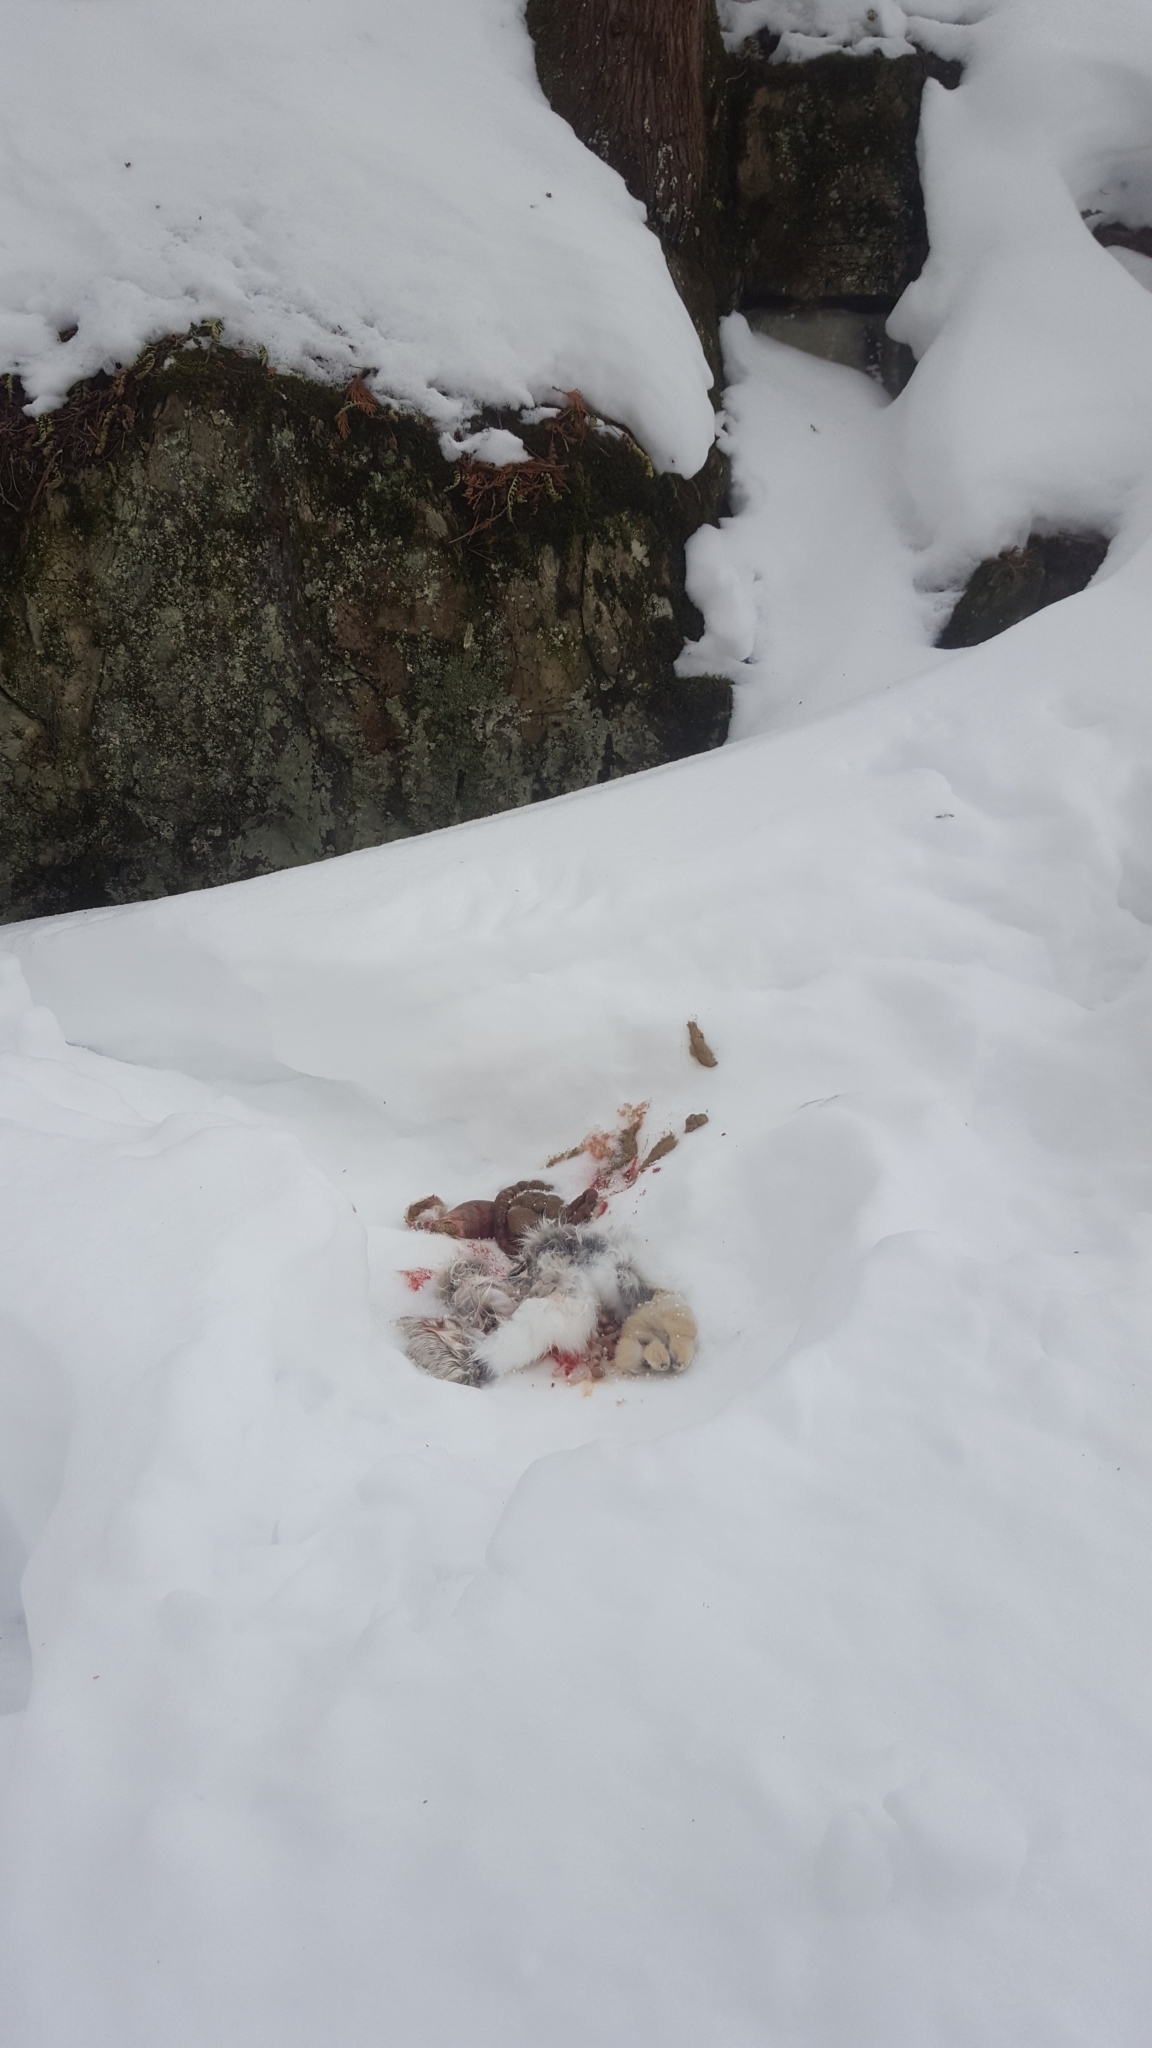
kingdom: Animalia
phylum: Chordata
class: Mammalia
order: Lagomorpha
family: Leporidae
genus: Lepus
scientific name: Lepus americanus
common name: Snowshoe hare
